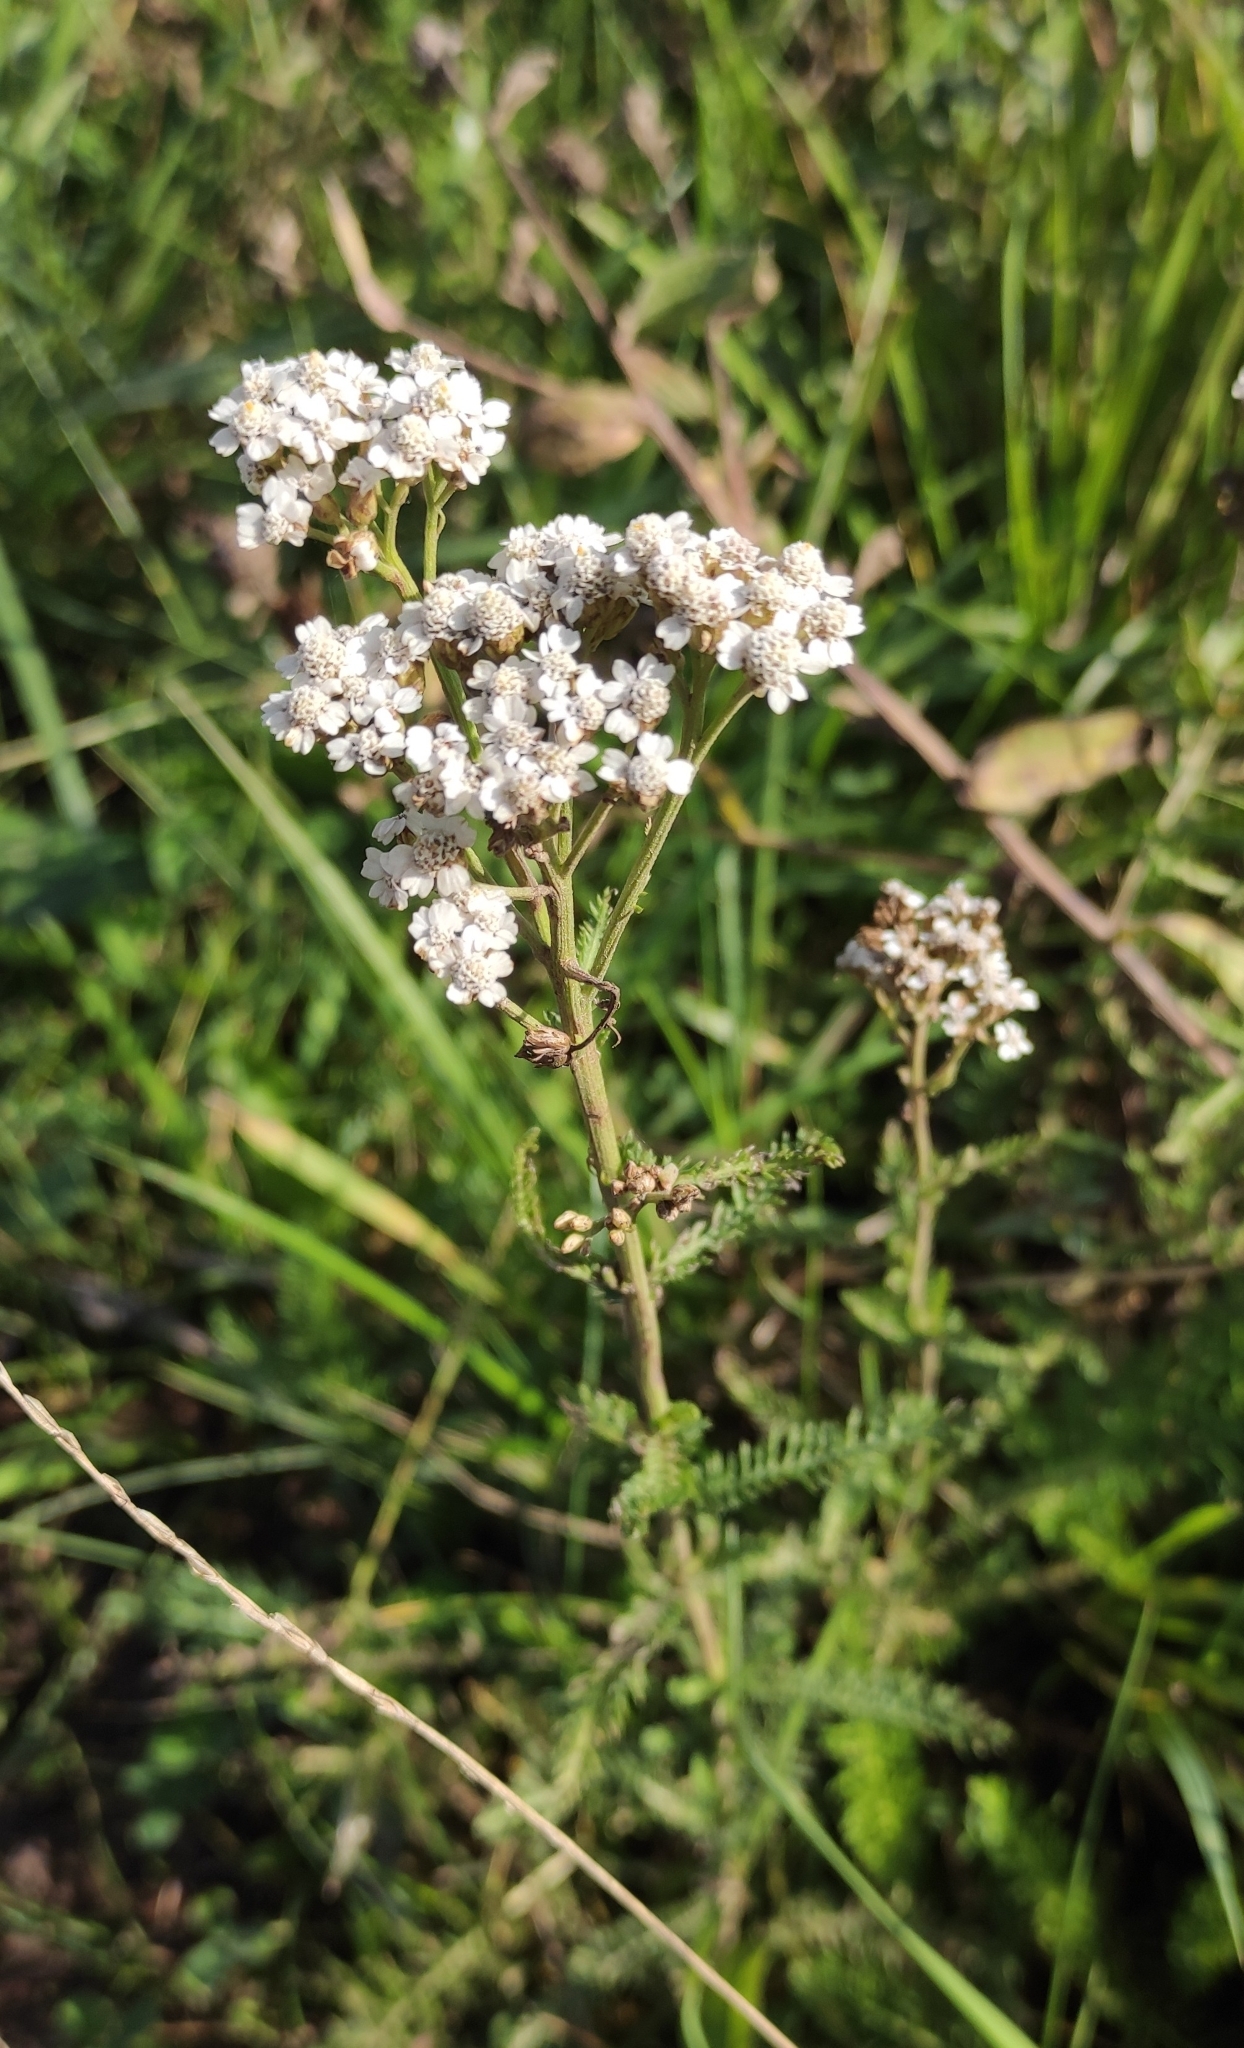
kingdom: Plantae
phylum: Tracheophyta
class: Magnoliopsida
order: Asterales
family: Asteraceae
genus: Achillea
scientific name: Achillea millefolium
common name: Yarrow
